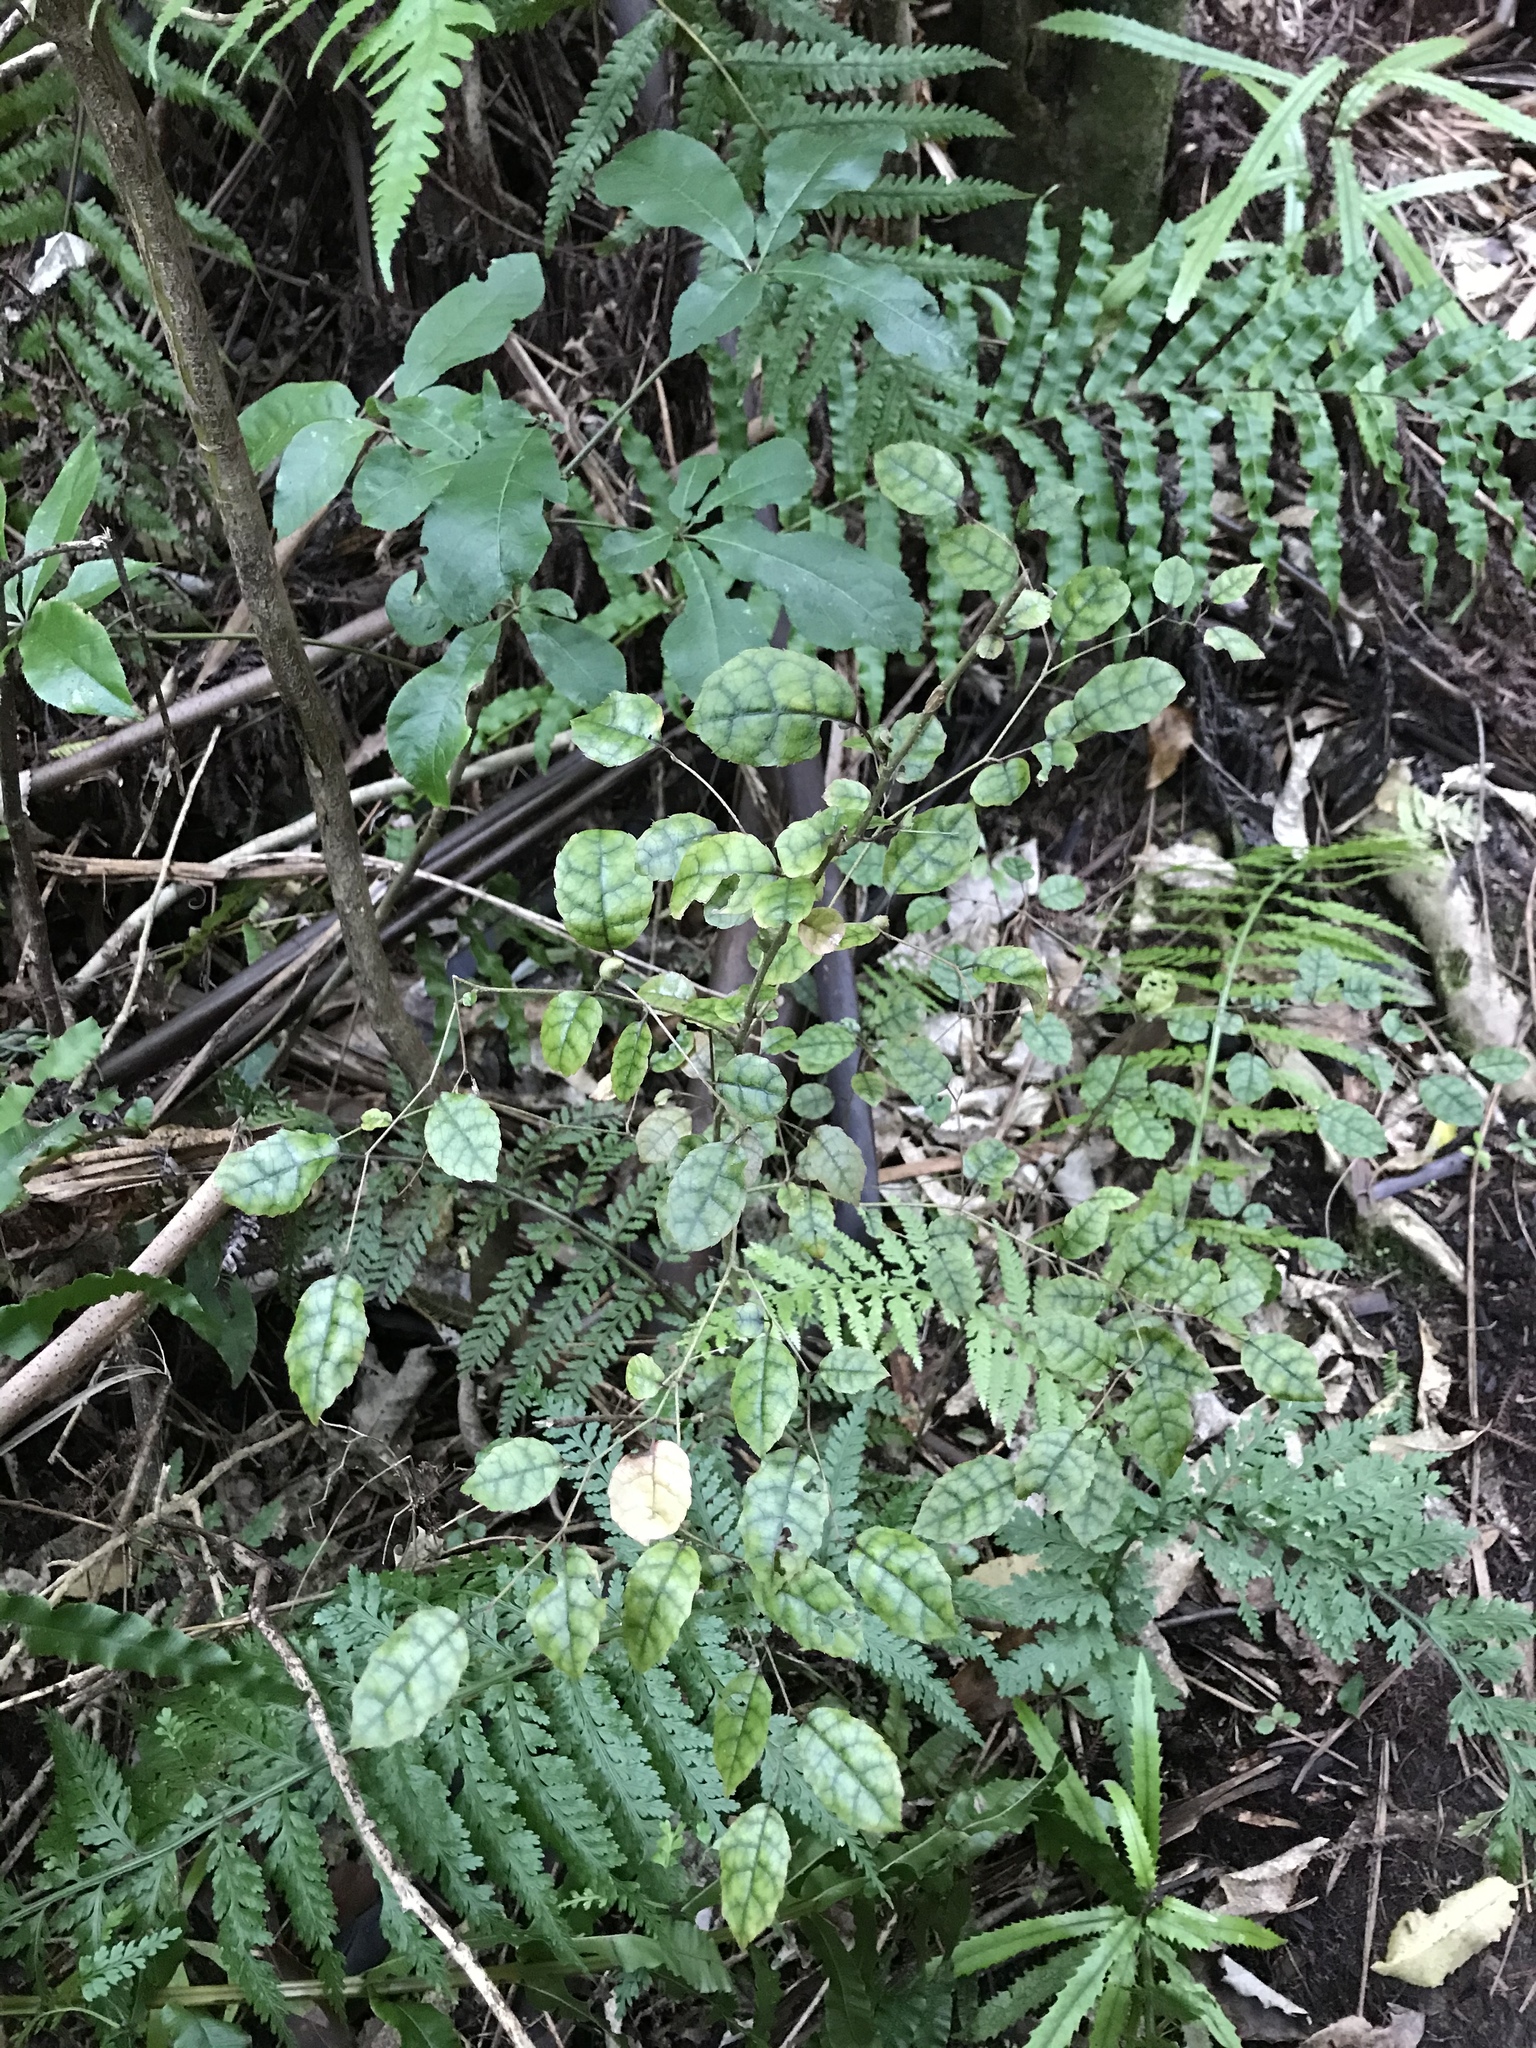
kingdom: Plantae
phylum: Tracheophyta
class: Magnoliopsida
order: Asterales
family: Rousseaceae
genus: Carpodetus
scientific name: Carpodetus serratus
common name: White mapau
